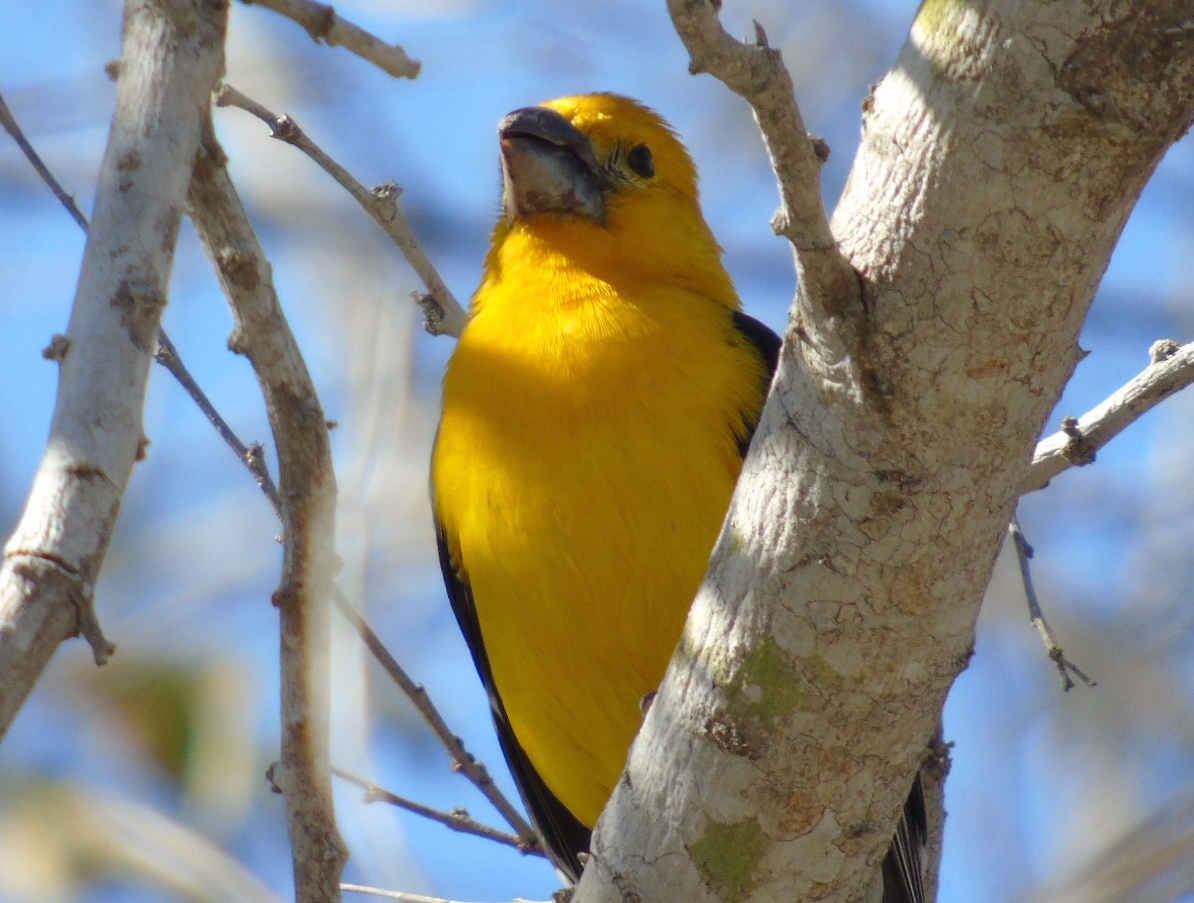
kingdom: Animalia
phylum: Chordata
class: Aves
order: Passeriformes
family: Cardinalidae
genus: Pheucticus
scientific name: Pheucticus chrysopeplus
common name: Yellow grosbeak
